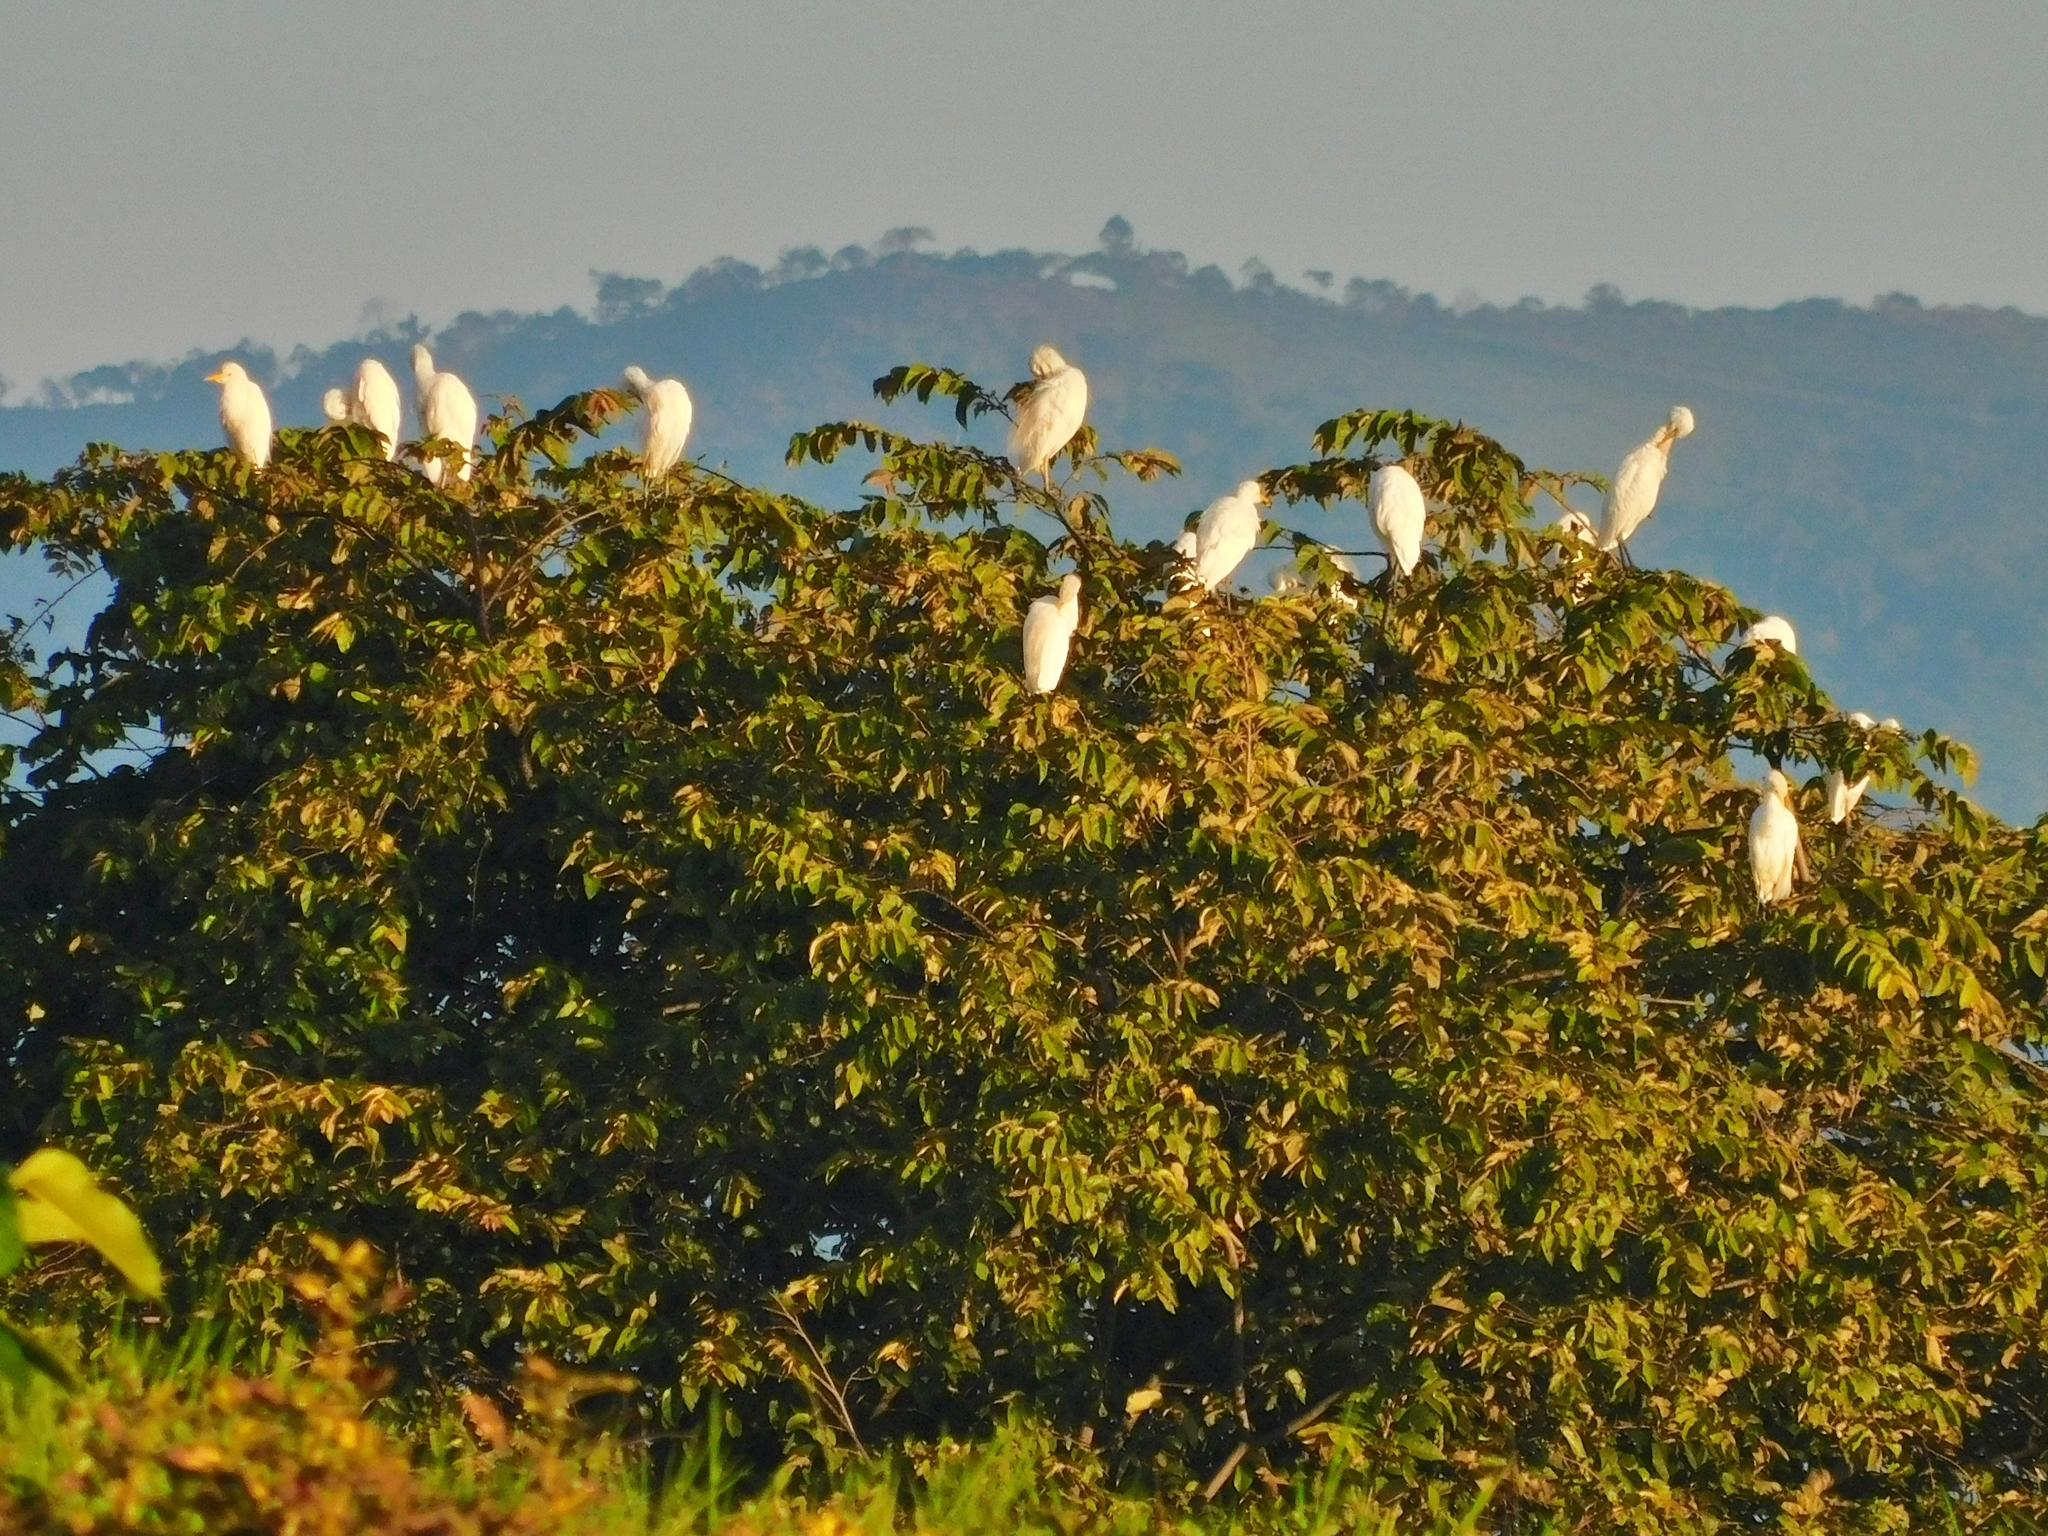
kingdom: Animalia
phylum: Chordata
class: Aves
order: Pelecaniformes
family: Ardeidae
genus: Bubulcus
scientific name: Bubulcus ibis
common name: Cattle egret
